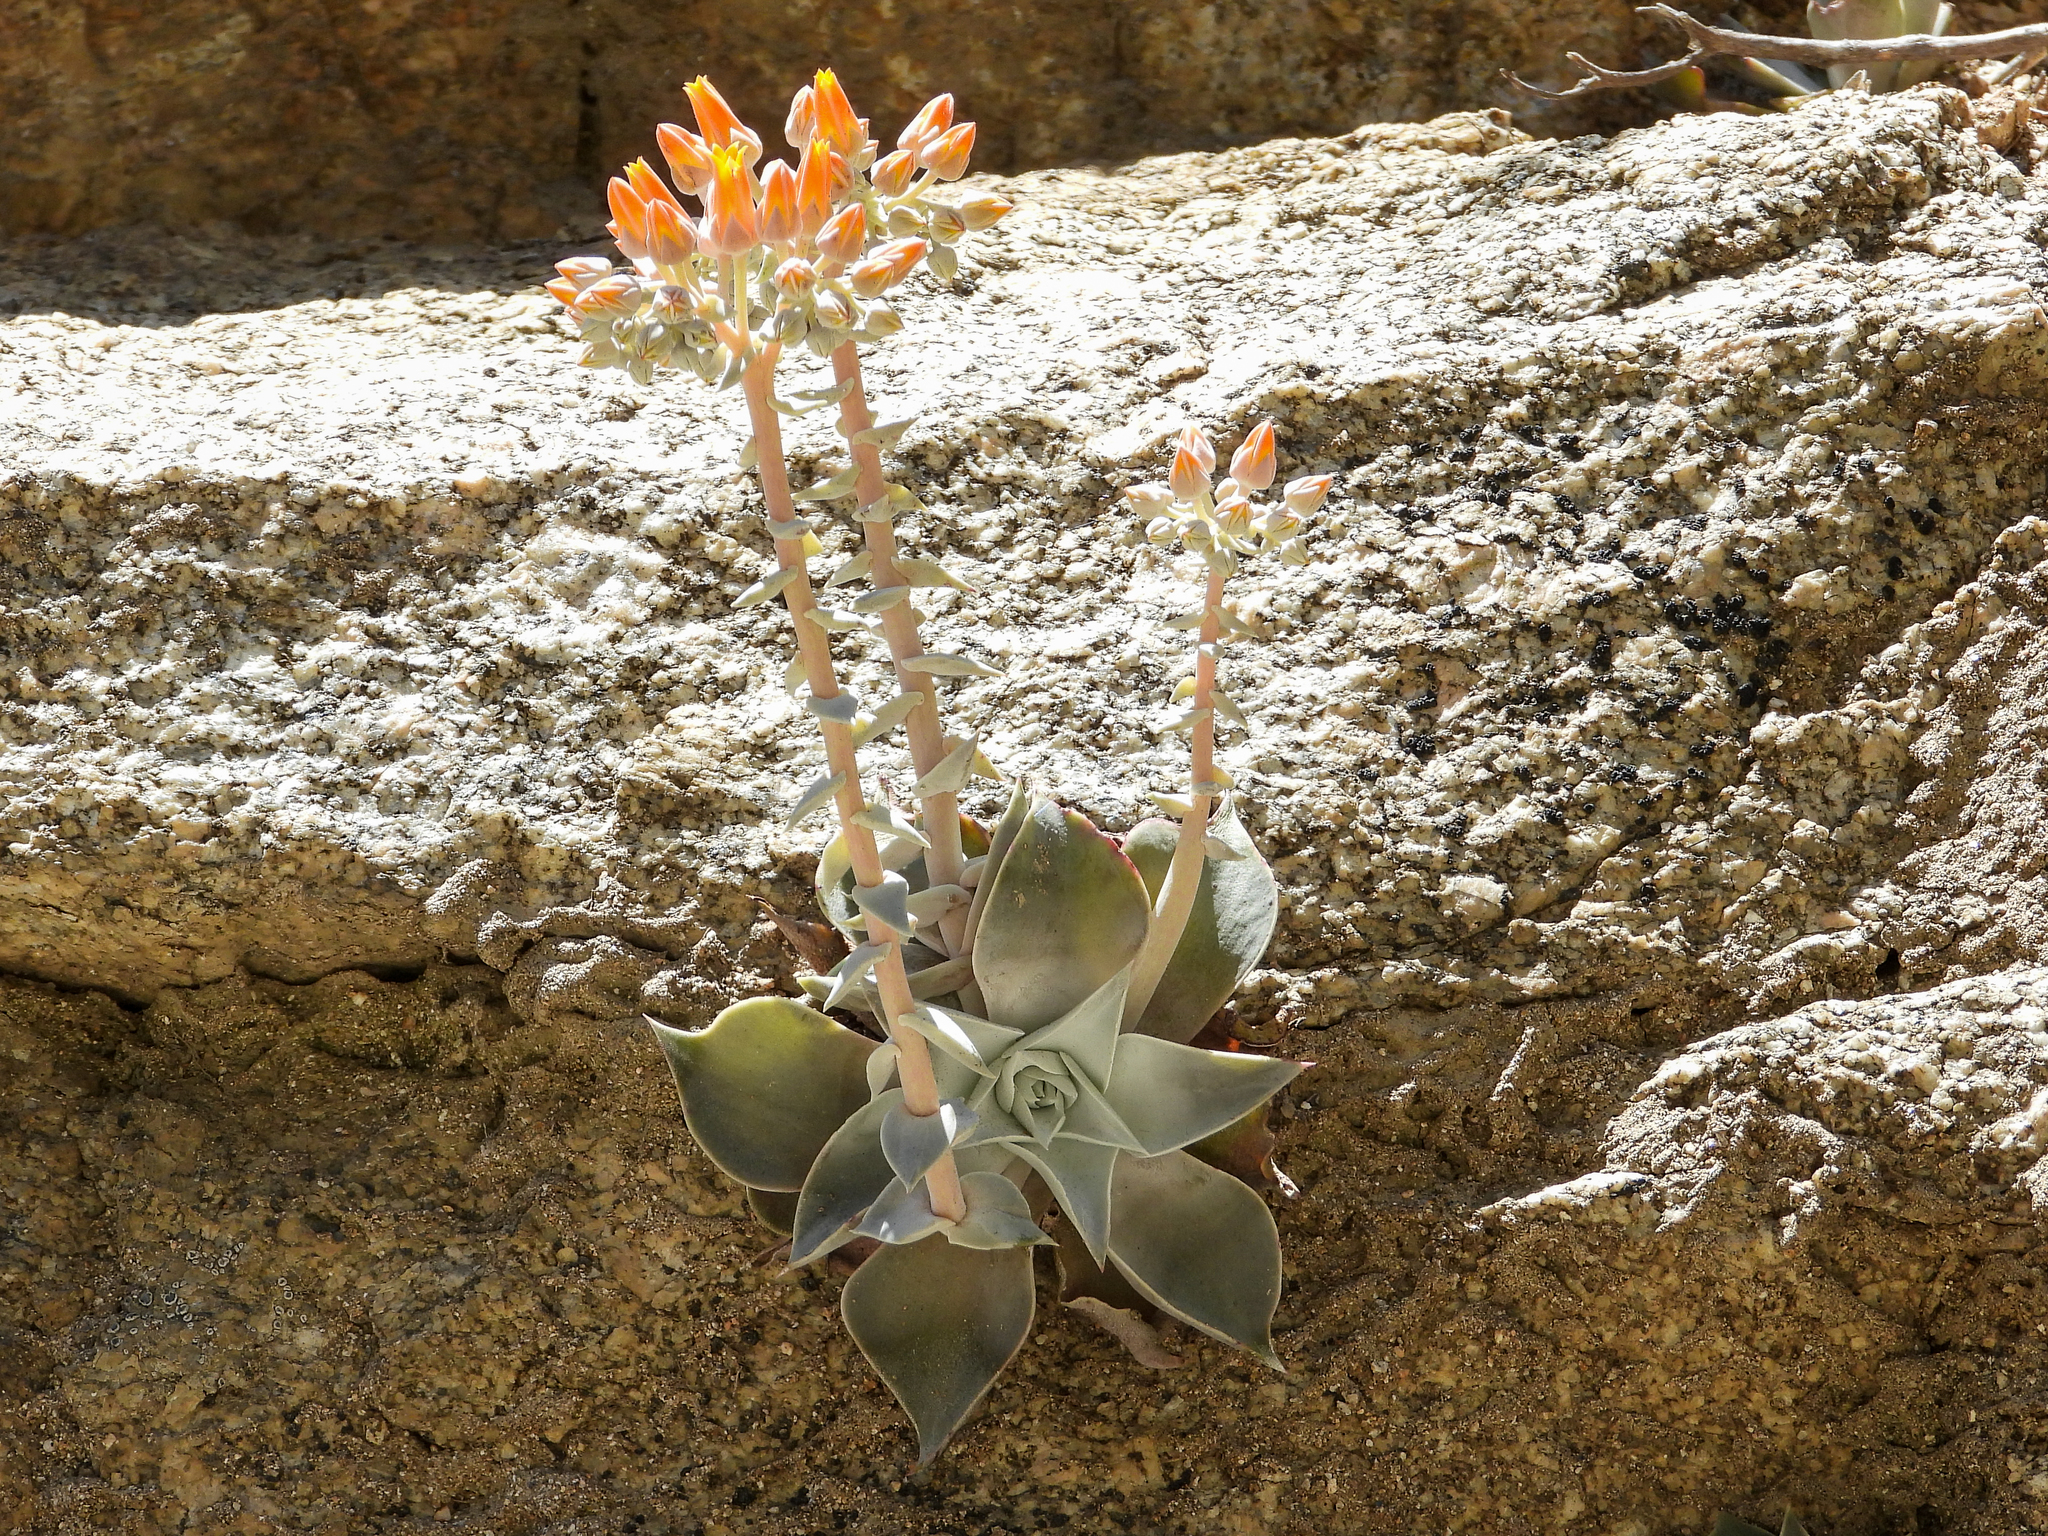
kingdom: Plantae
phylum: Tracheophyta
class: Magnoliopsida
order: Saxifragales
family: Crassulaceae
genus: Dudleya
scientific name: Dudleya cymosa
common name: Canyon dudleya
